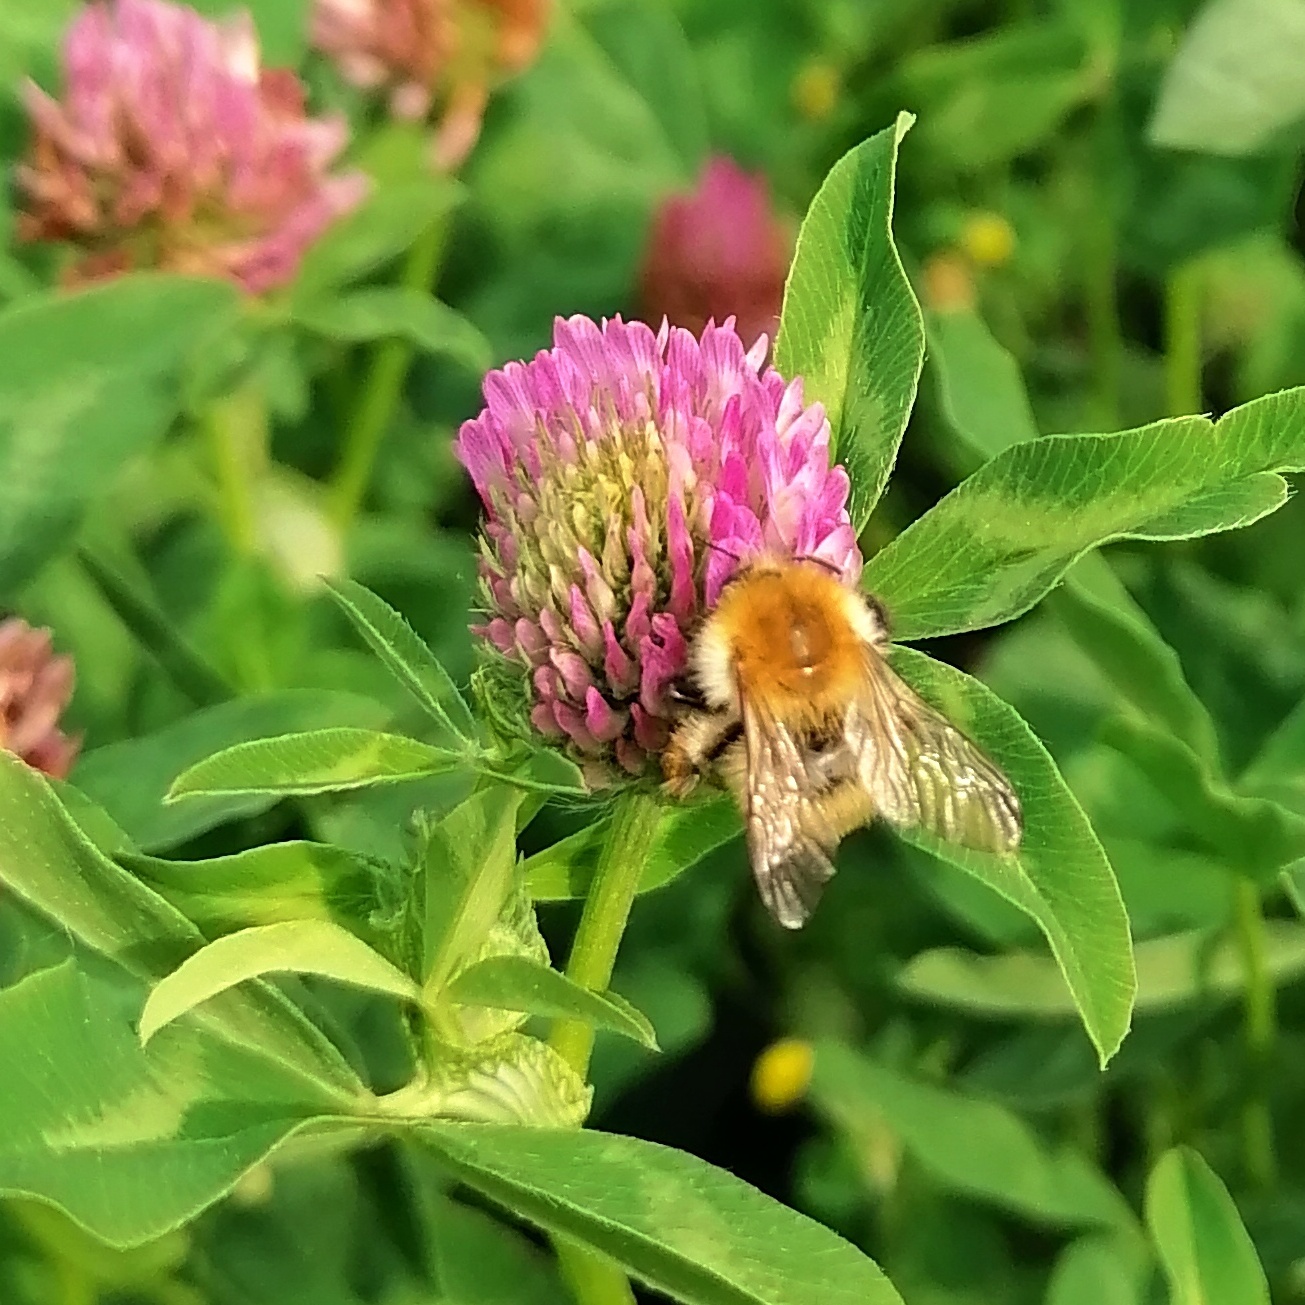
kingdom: Animalia
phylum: Arthropoda
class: Insecta
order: Hymenoptera
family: Apidae
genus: Bombus
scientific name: Bombus pascuorum
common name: Common carder bee
